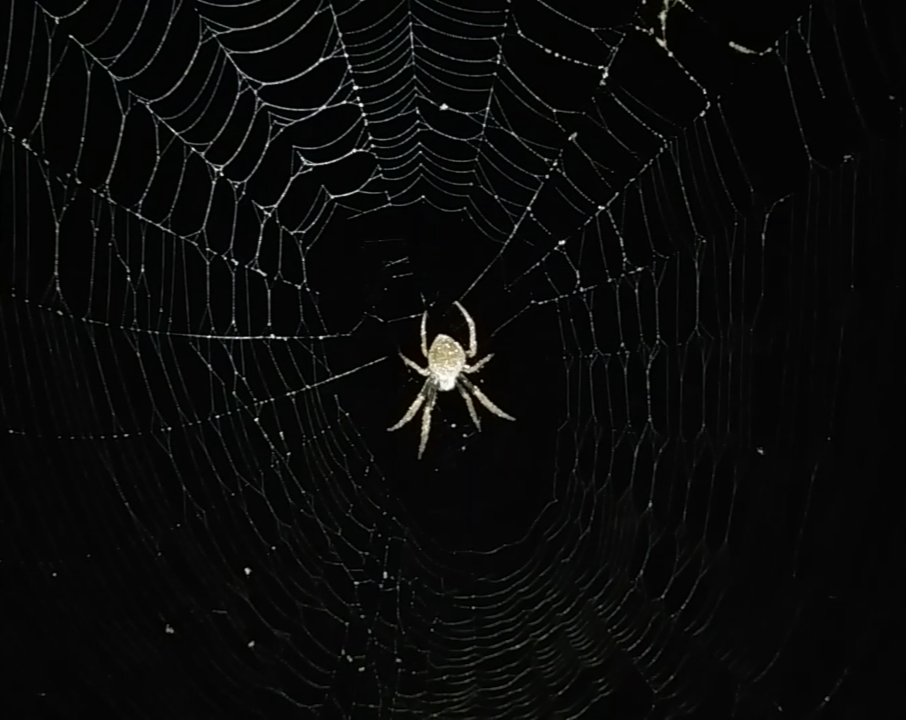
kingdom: Animalia
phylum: Arthropoda
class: Arachnida
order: Araneae
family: Araneidae
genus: Eriophora
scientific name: Eriophora ravilla
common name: Orb weavers
